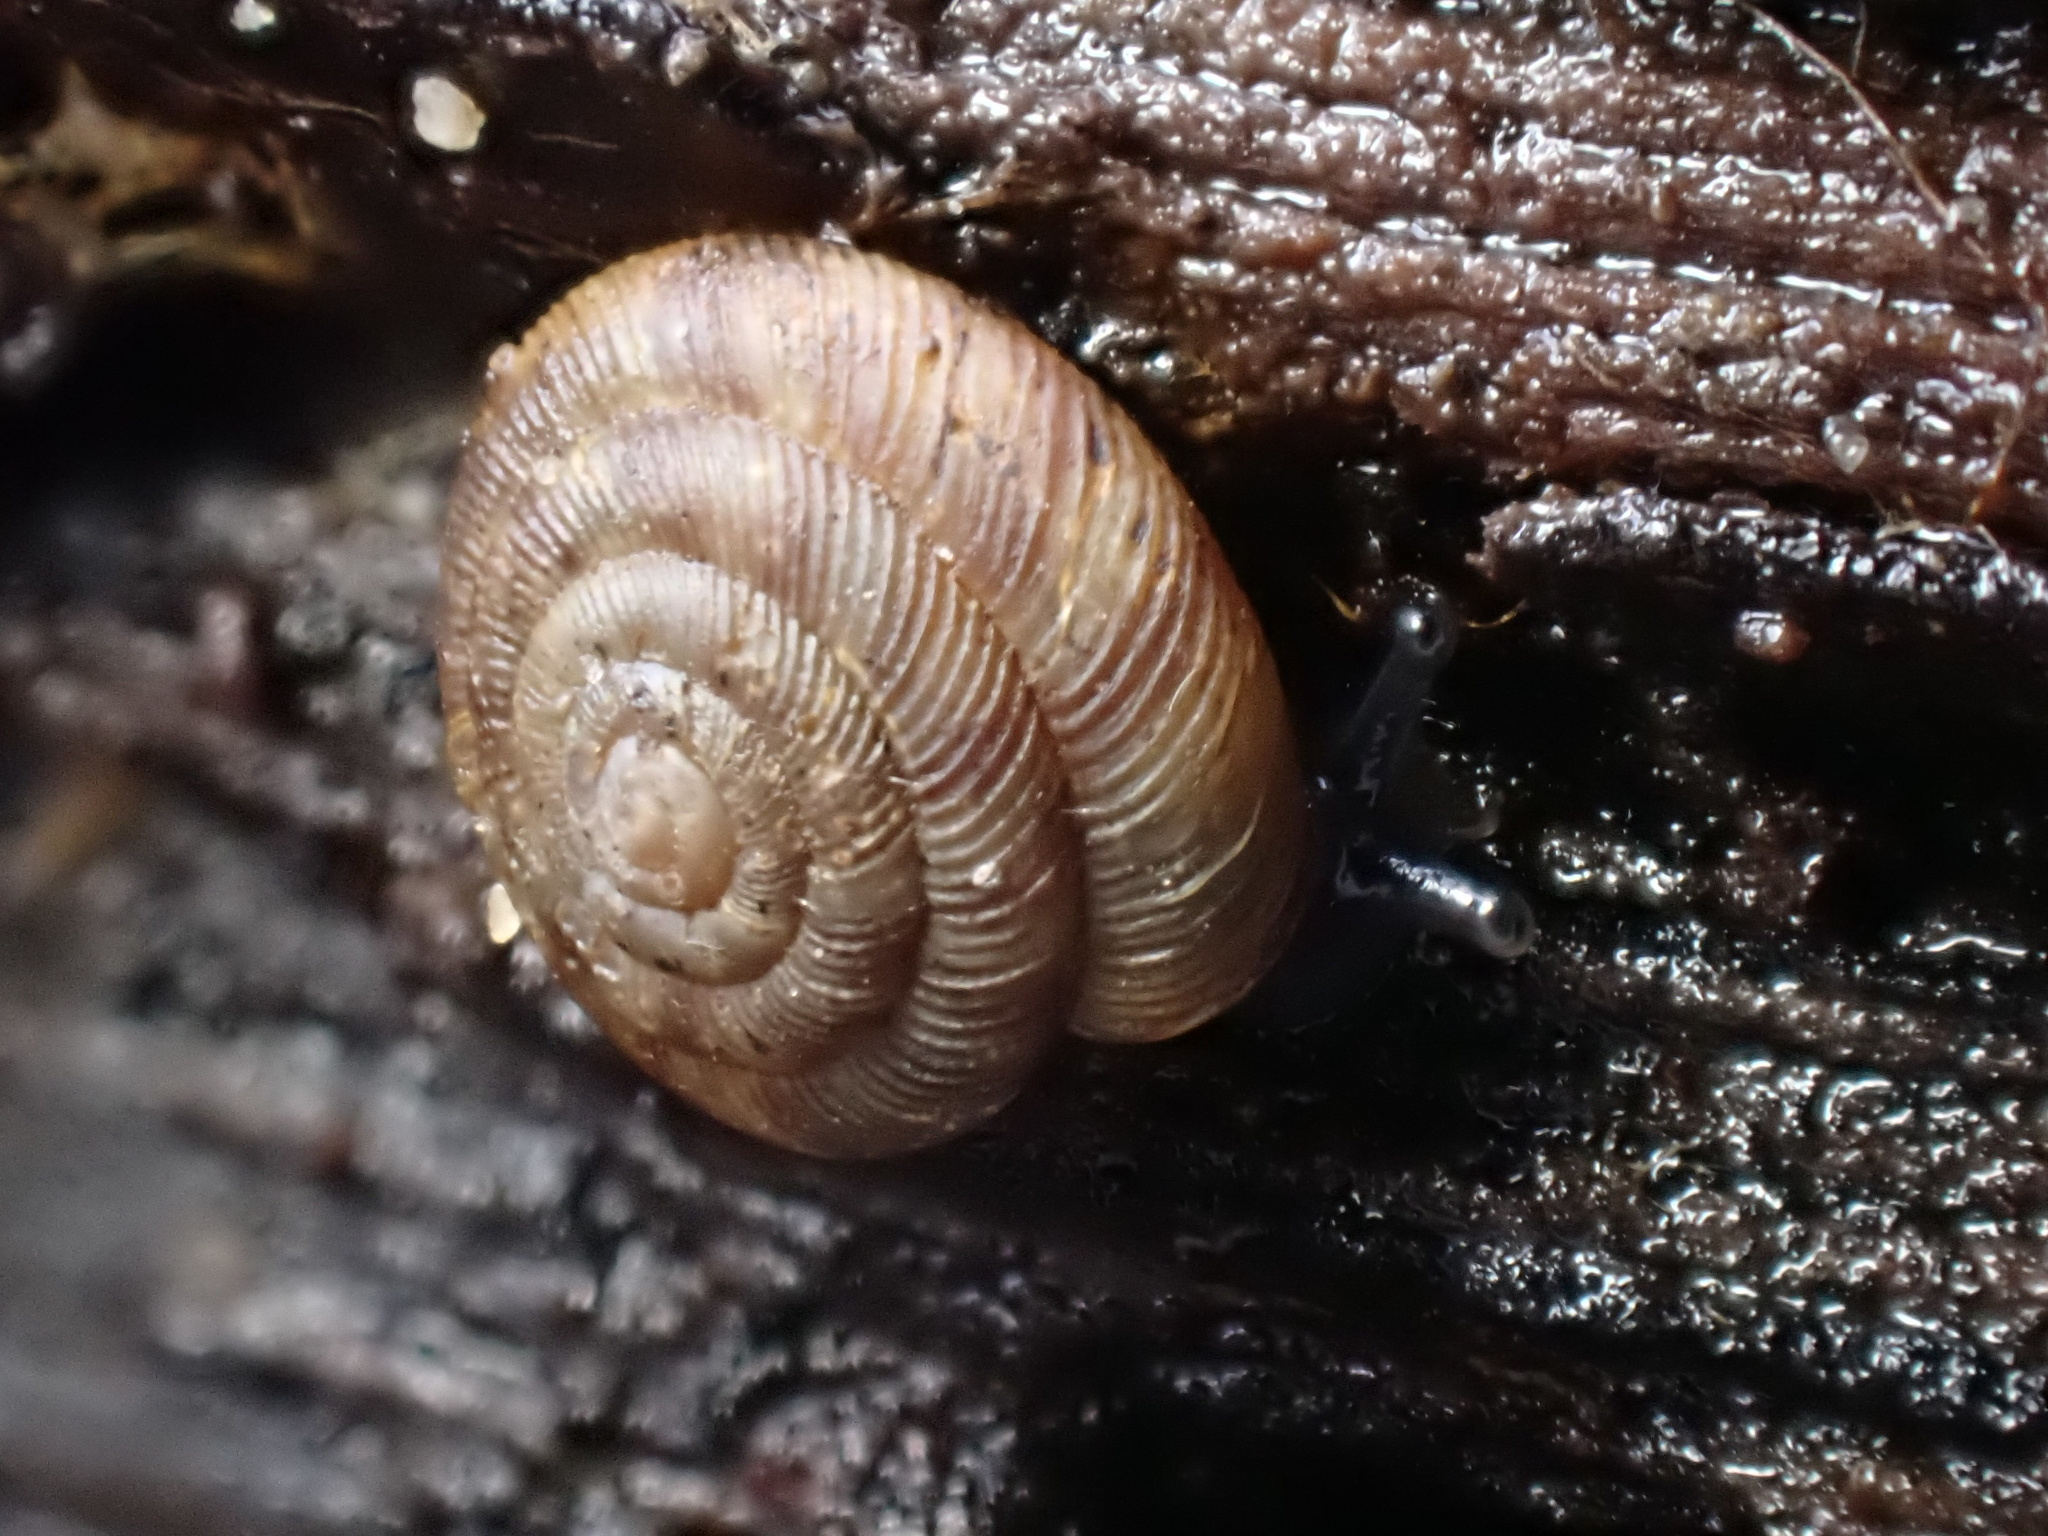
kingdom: Animalia
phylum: Mollusca
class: Gastropoda
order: Stylommatophora
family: Discidae
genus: Discus
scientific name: Discus rotundatus
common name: Rounded snail
